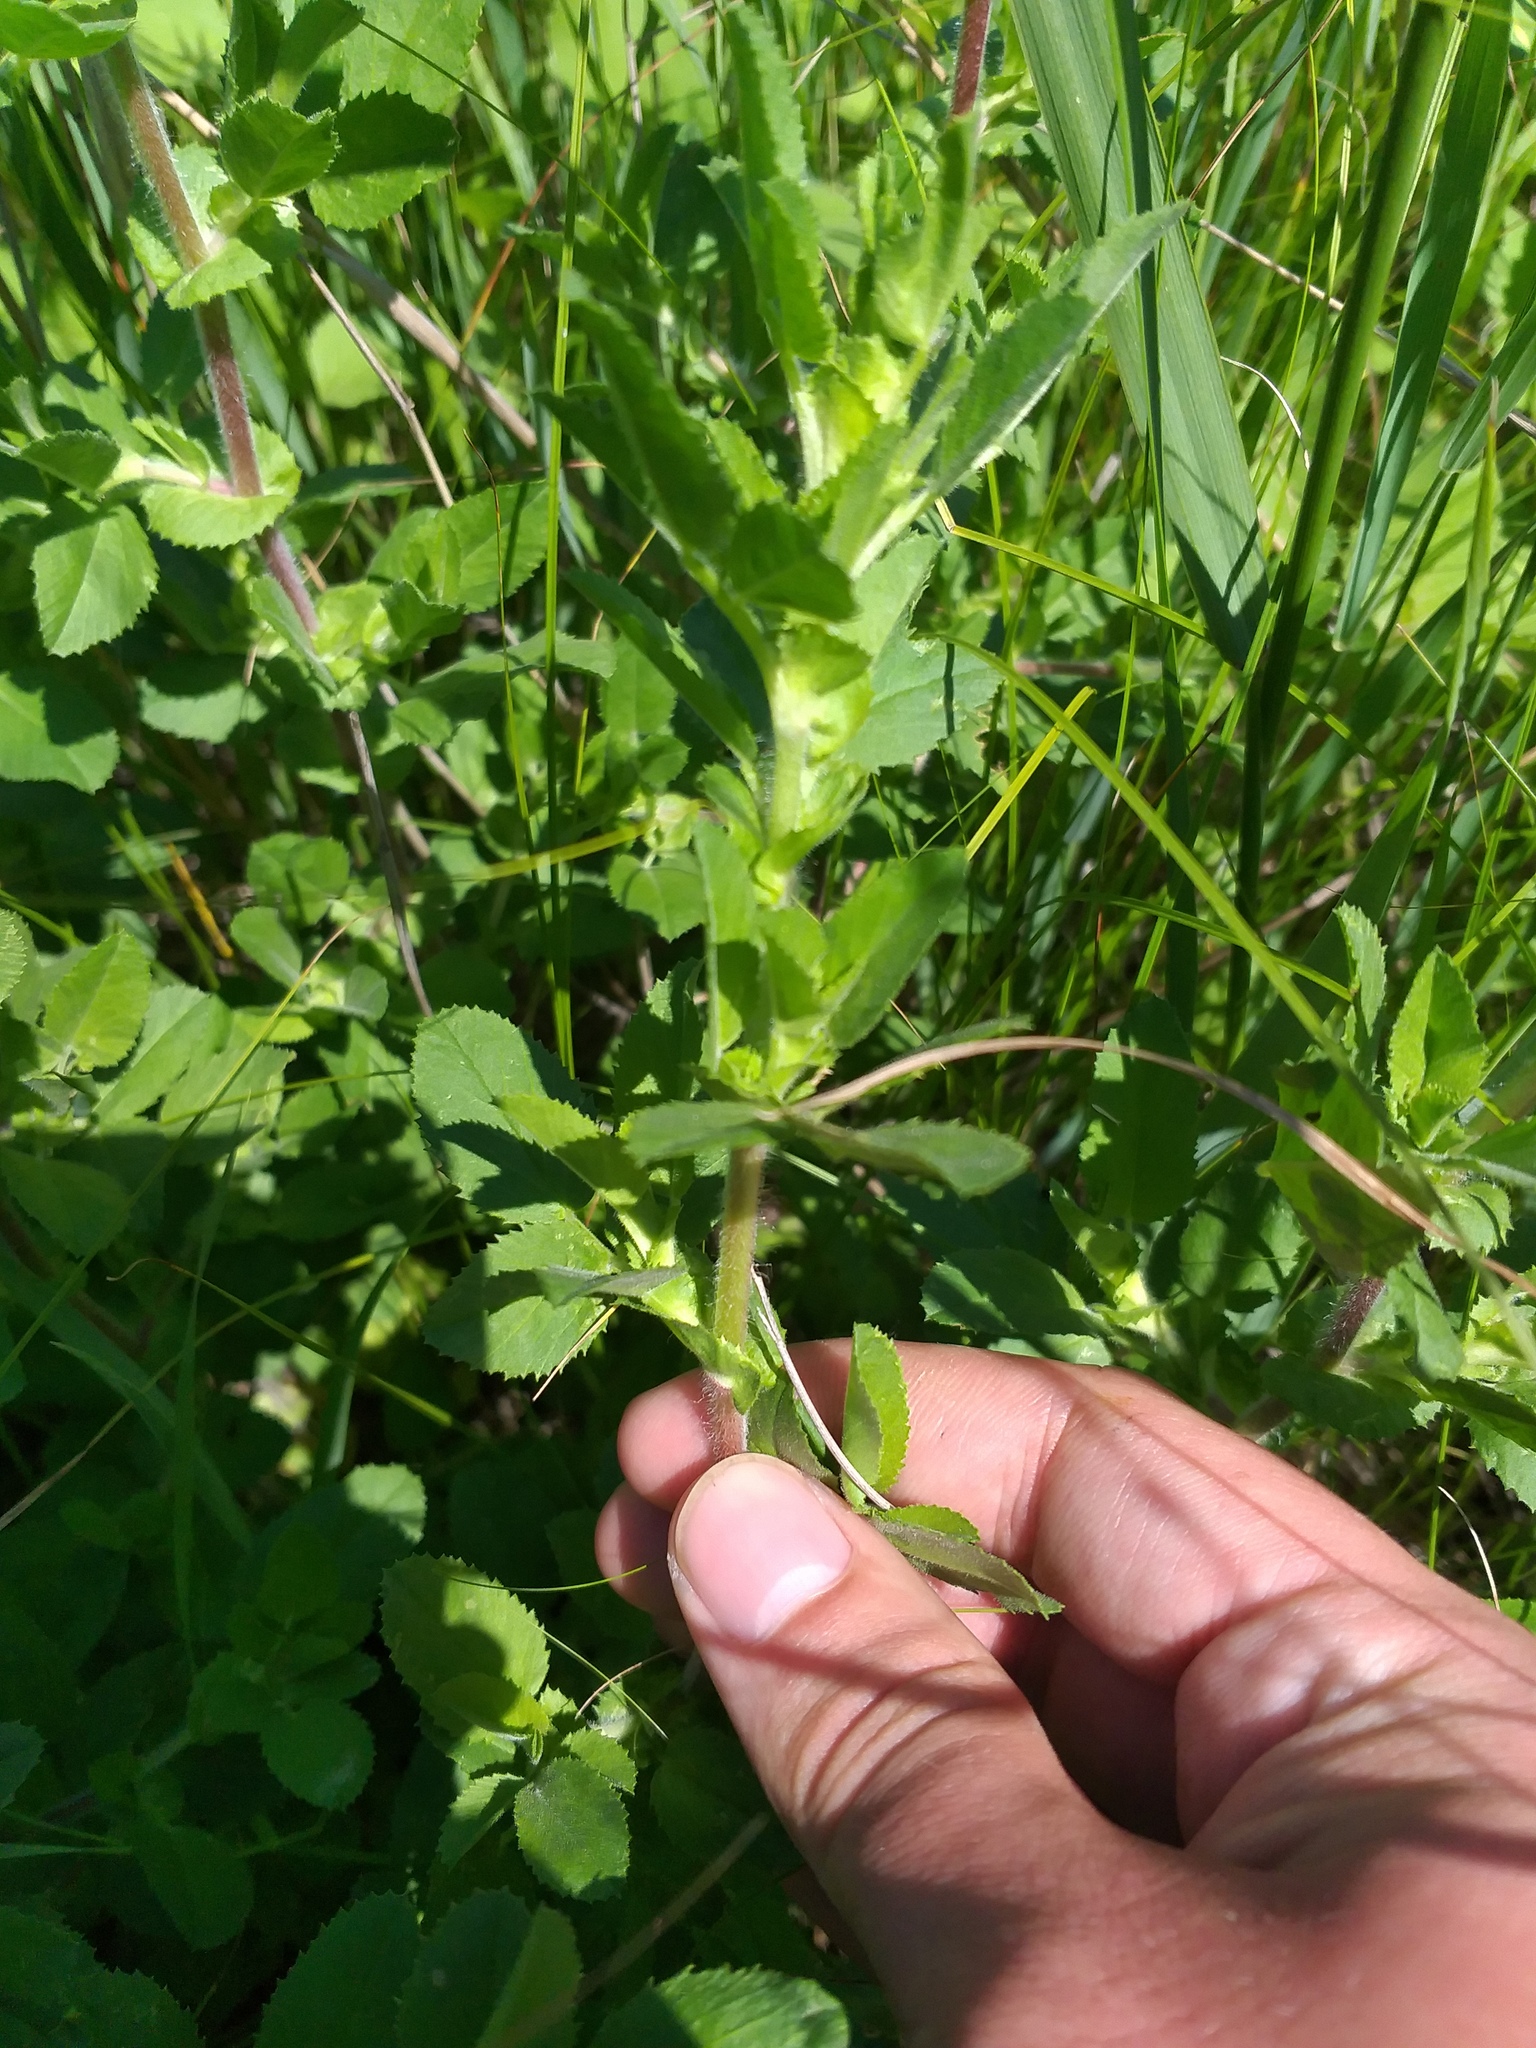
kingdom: Plantae
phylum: Tracheophyta
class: Magnoliopsida
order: Fabales
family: Fabaceae
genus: Ononis
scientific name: Ononis arvensis
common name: Field restharrow
